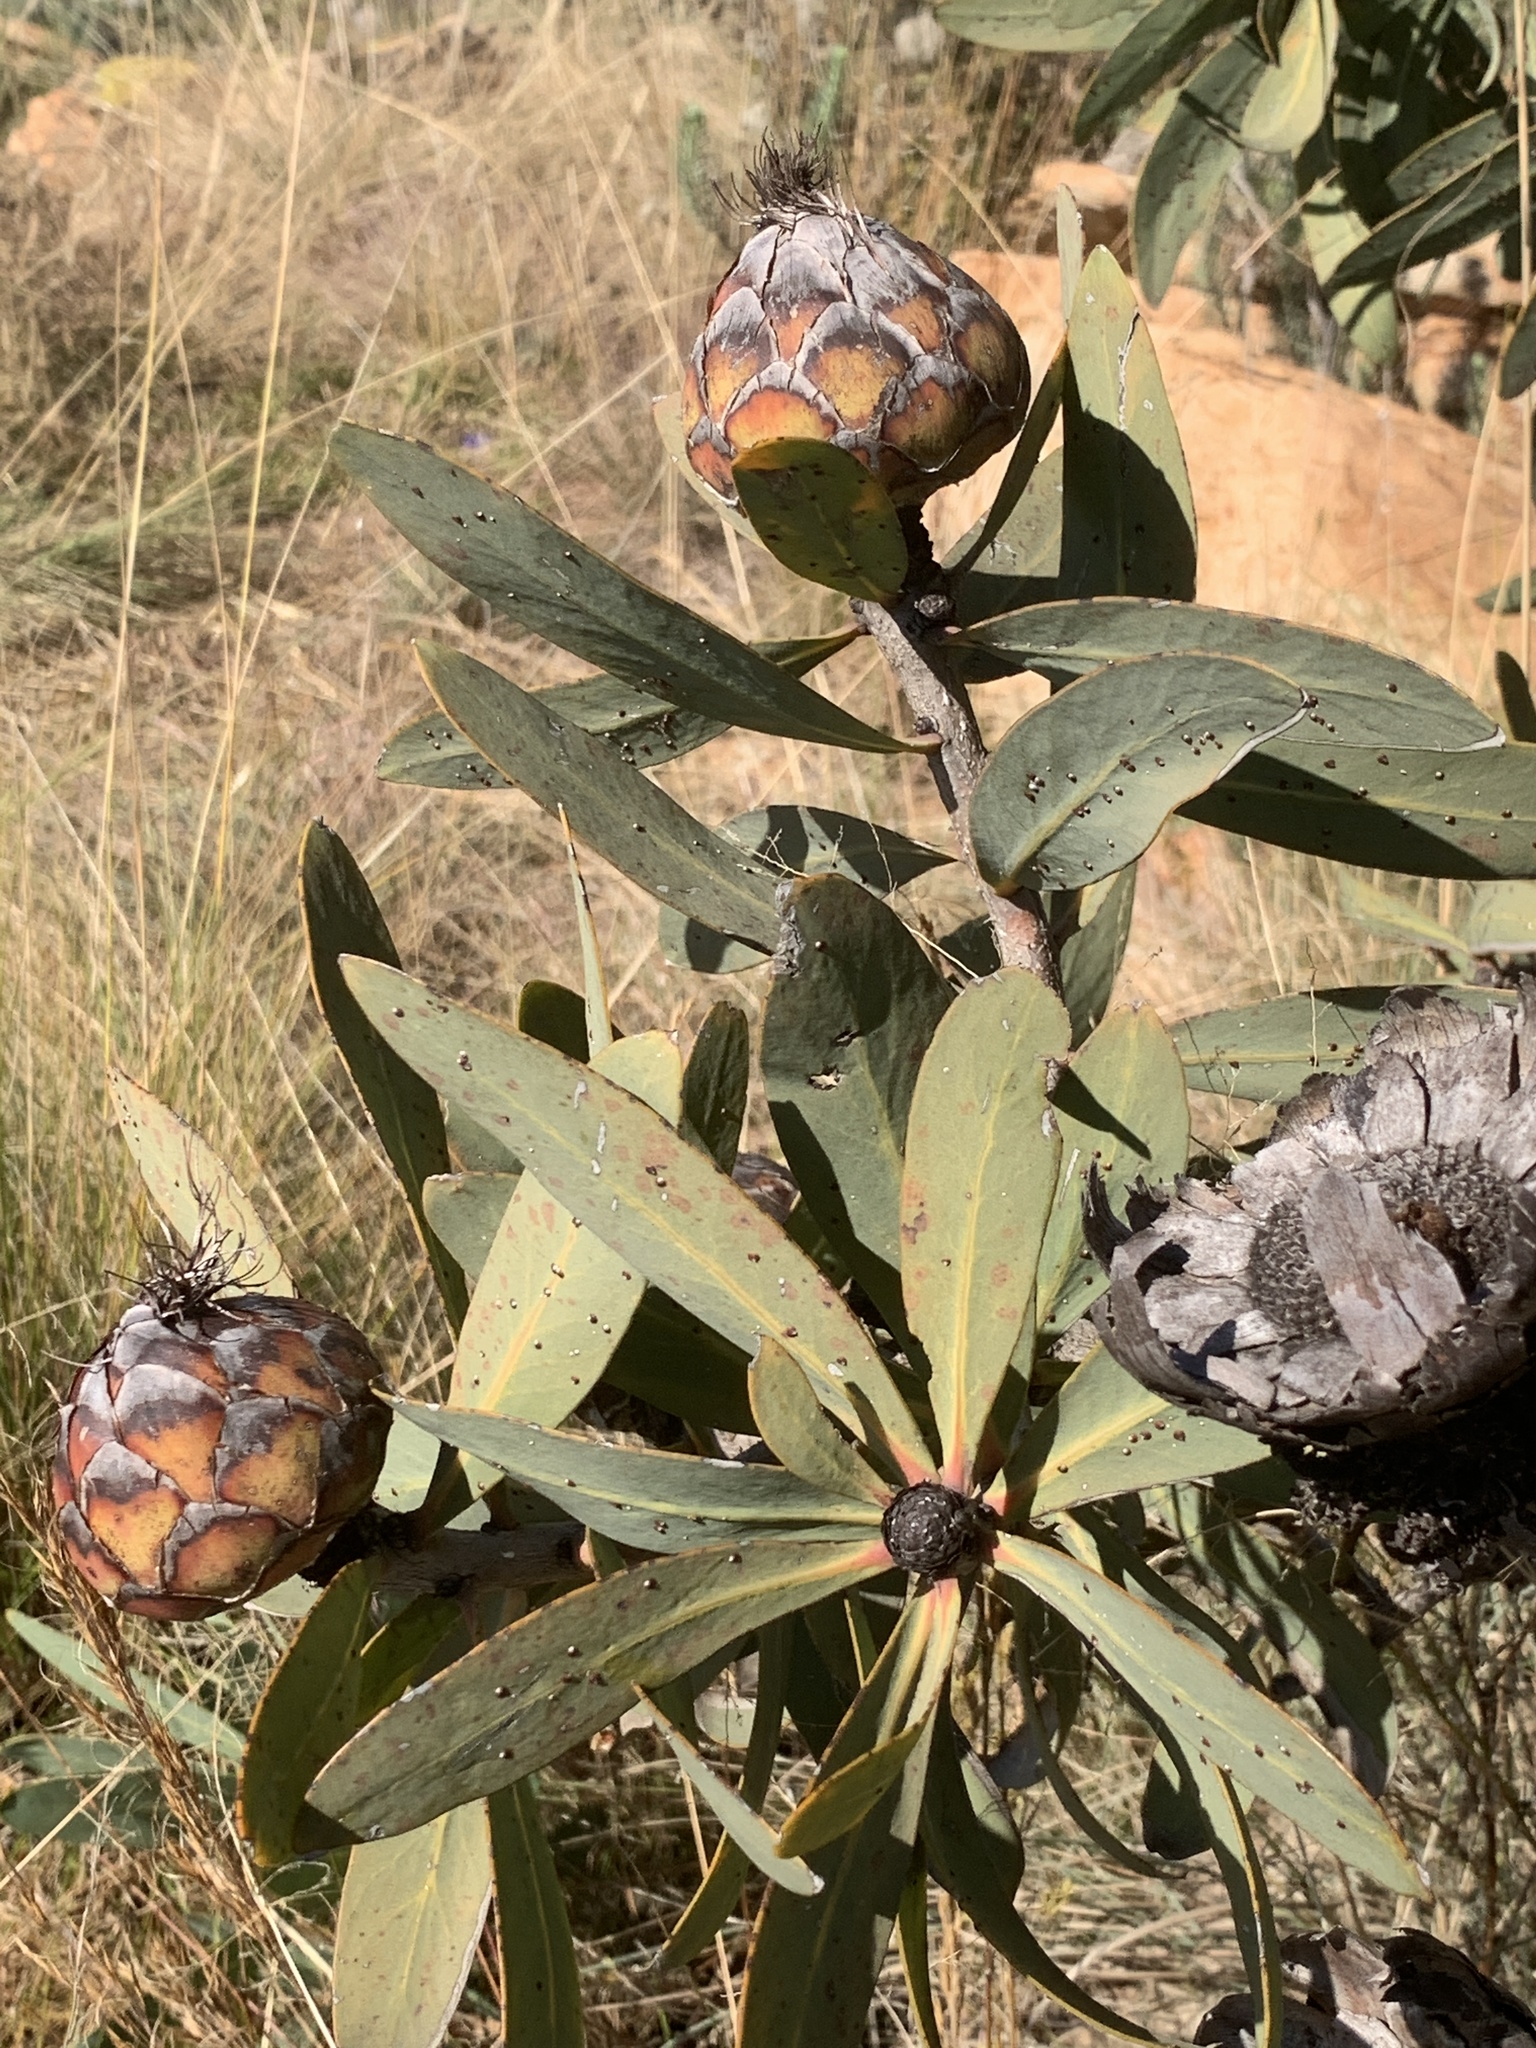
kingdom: Plantae
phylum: Tracheophyta
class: Magnoliopsida
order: Proteales
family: Proteaceae
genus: Protea
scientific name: Protea caffra
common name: Common sugarbush
